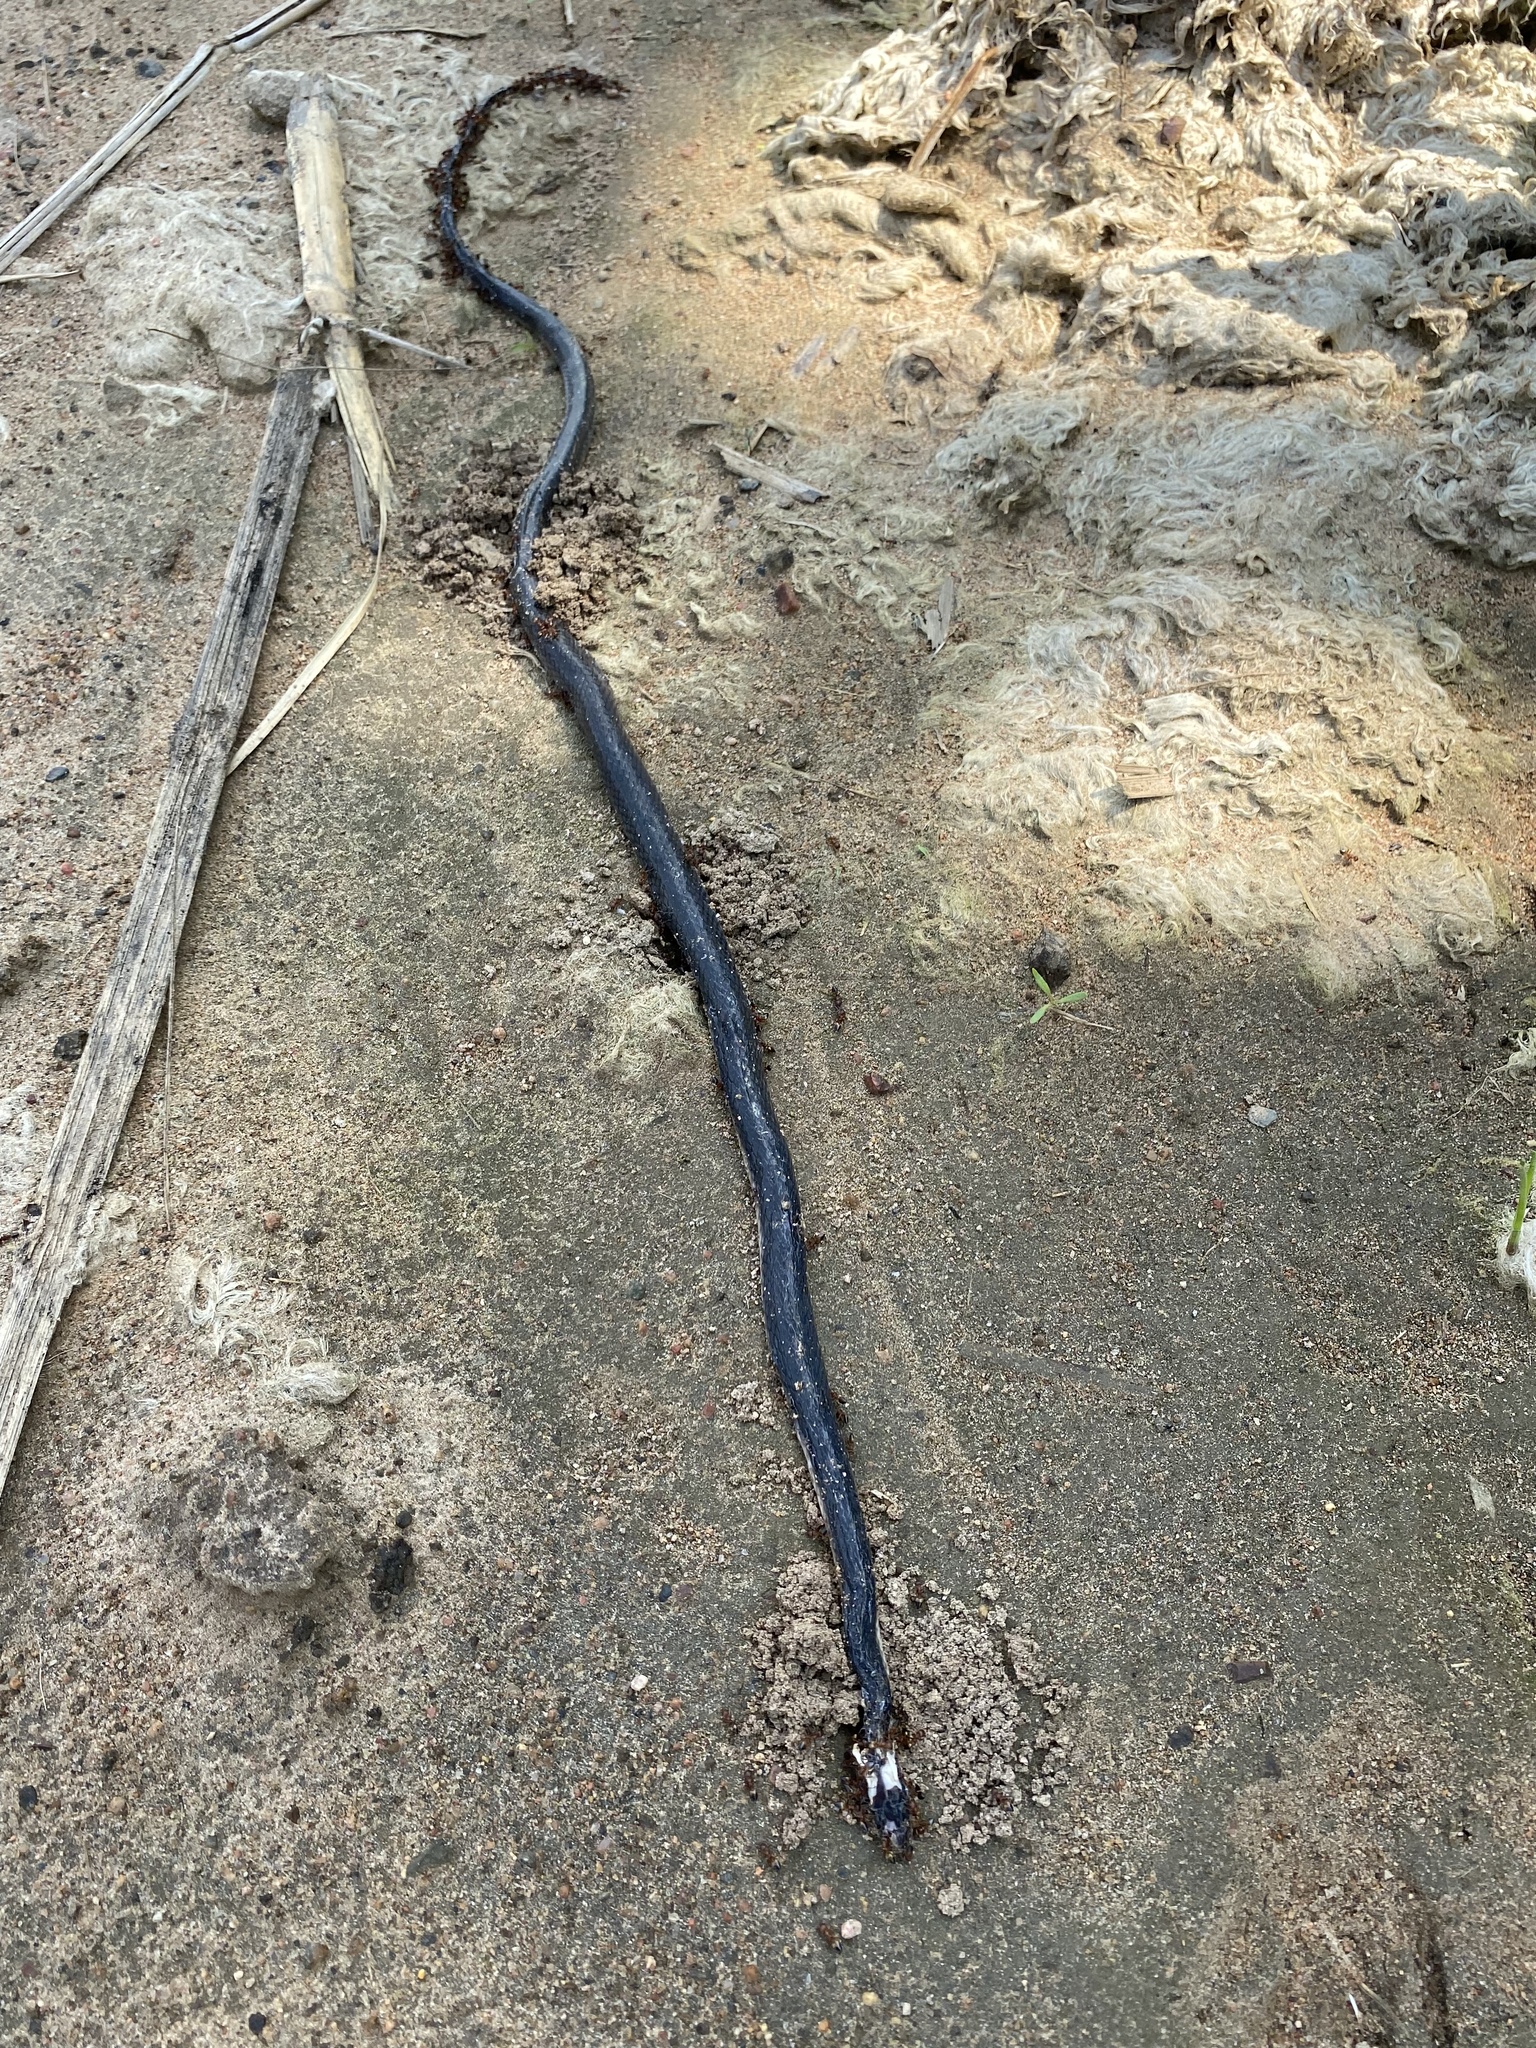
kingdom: Animalia
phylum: Chordata
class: Squamata
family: Lamprophiidae
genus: Lycodonomorphus
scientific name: Lycodonomorphus rufulus
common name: Brown water snake
